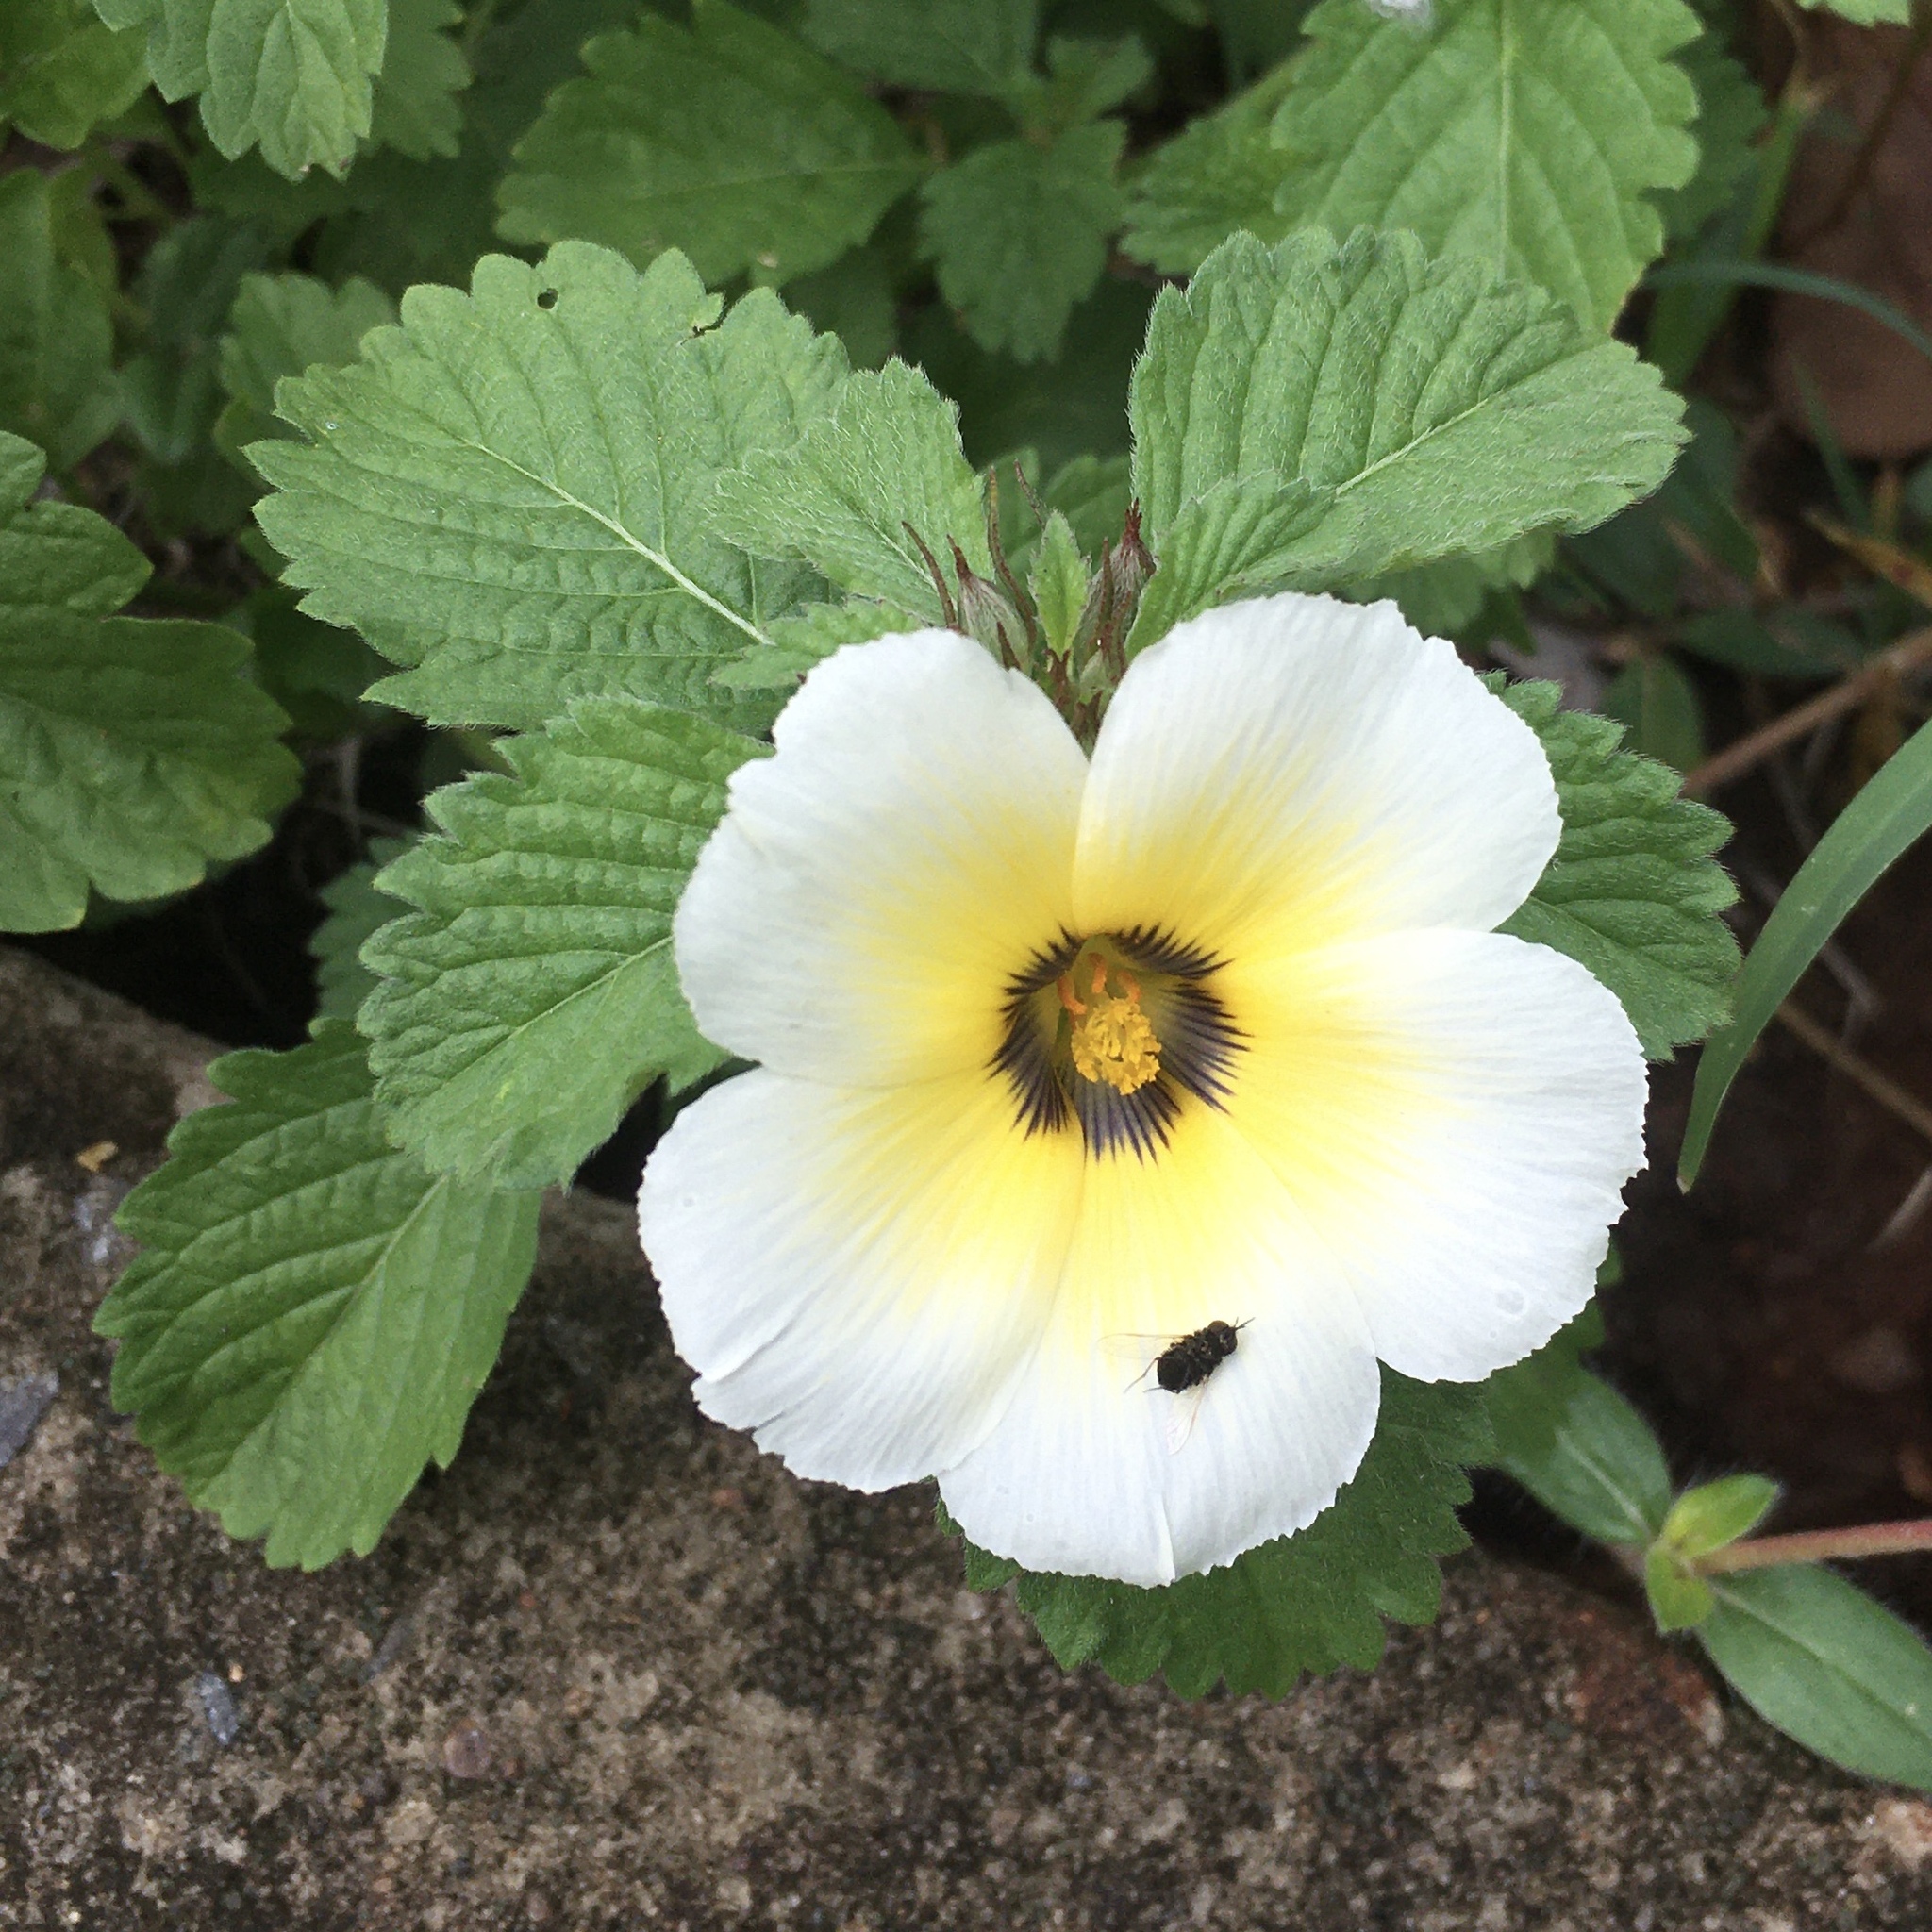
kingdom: Plantae
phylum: Tracheophyta
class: Magnoliopsida
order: Malpighiales
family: Turneraceae
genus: Turnera
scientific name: Turnera subulata
